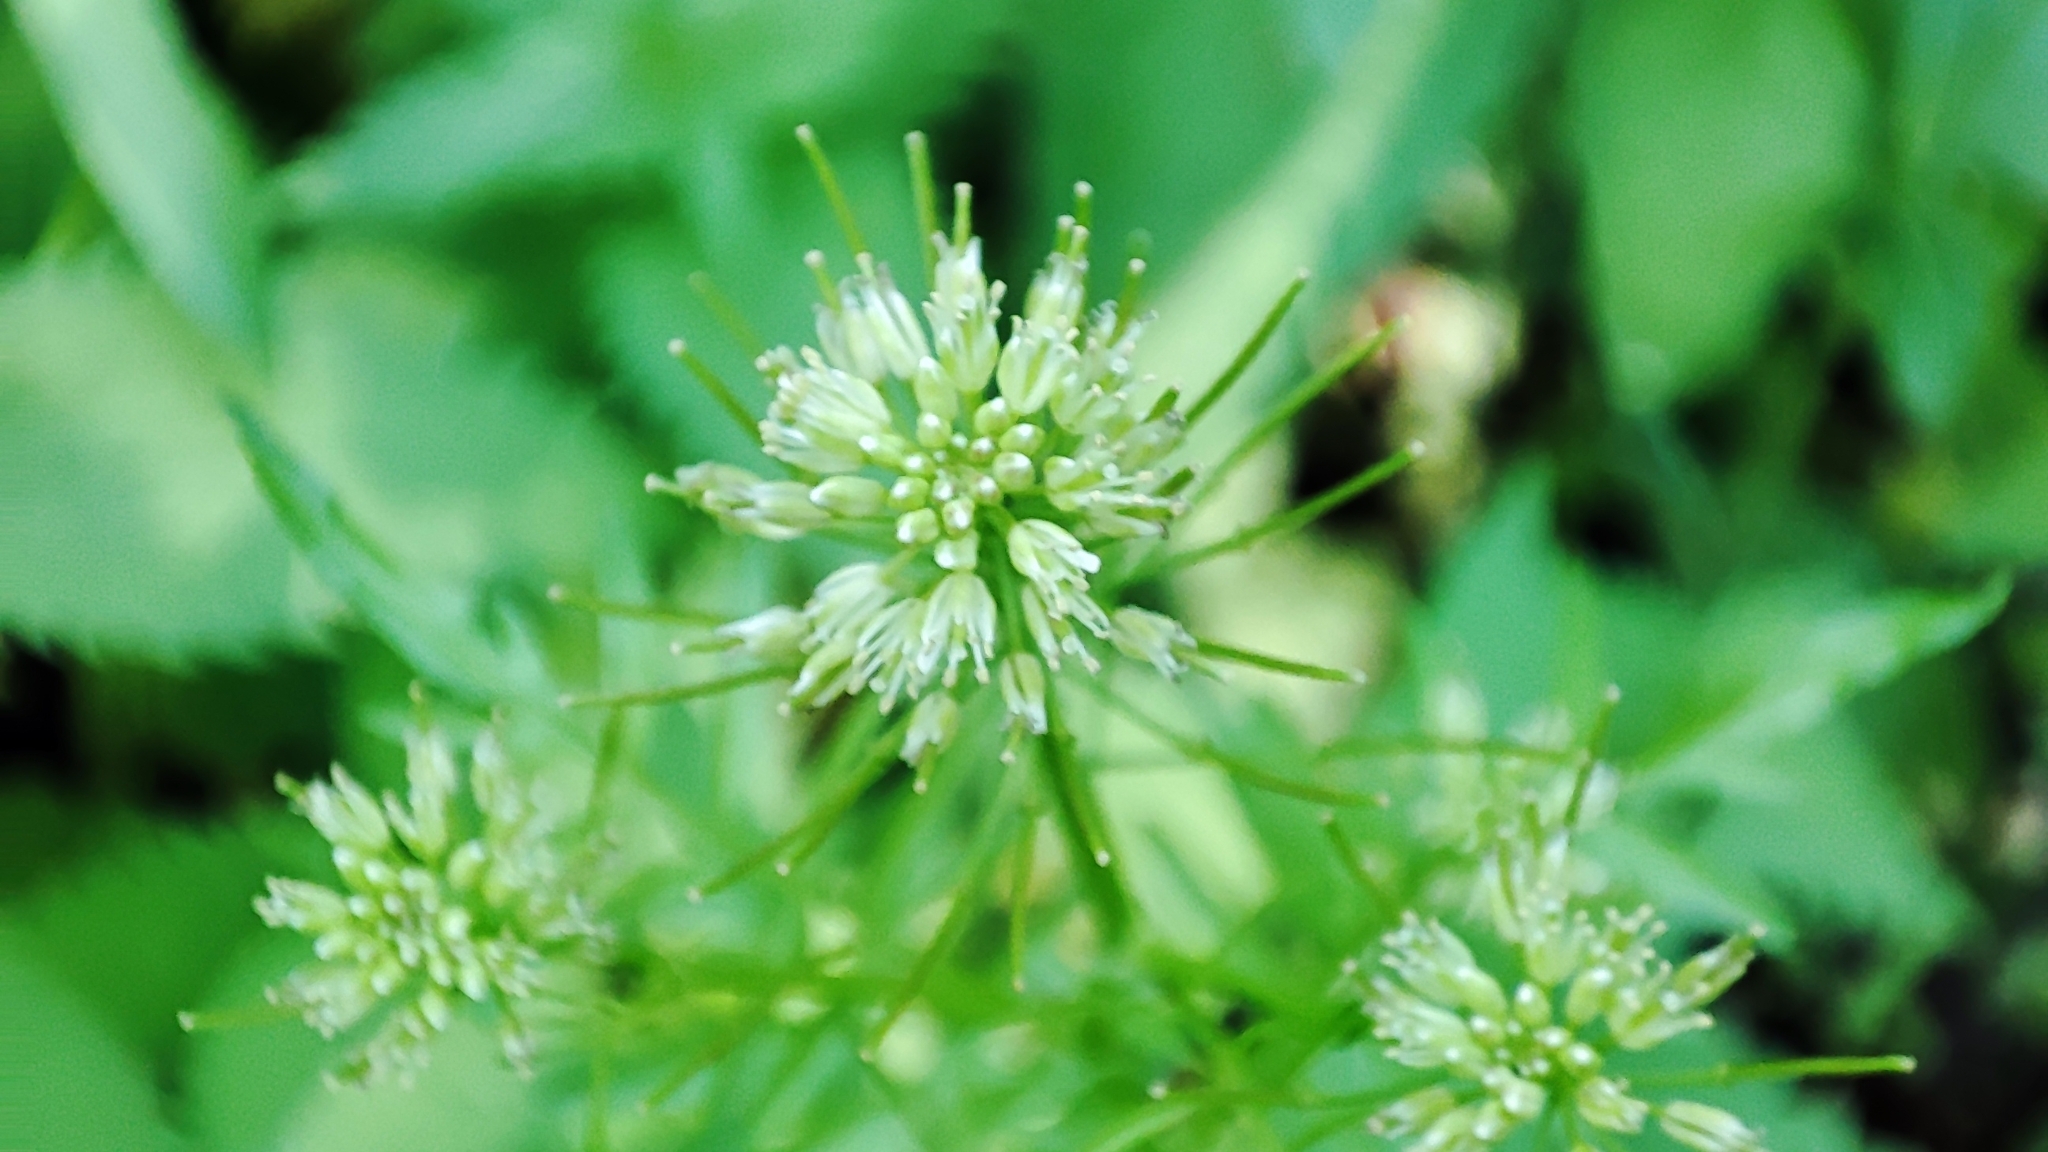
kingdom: Plantae
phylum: Tracheophyta
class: Magnoliopsida
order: Brassicales
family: Brassicaceae
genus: Cardamine
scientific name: Cardamine impatiens
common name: Narrow-leaved bitter-cress
